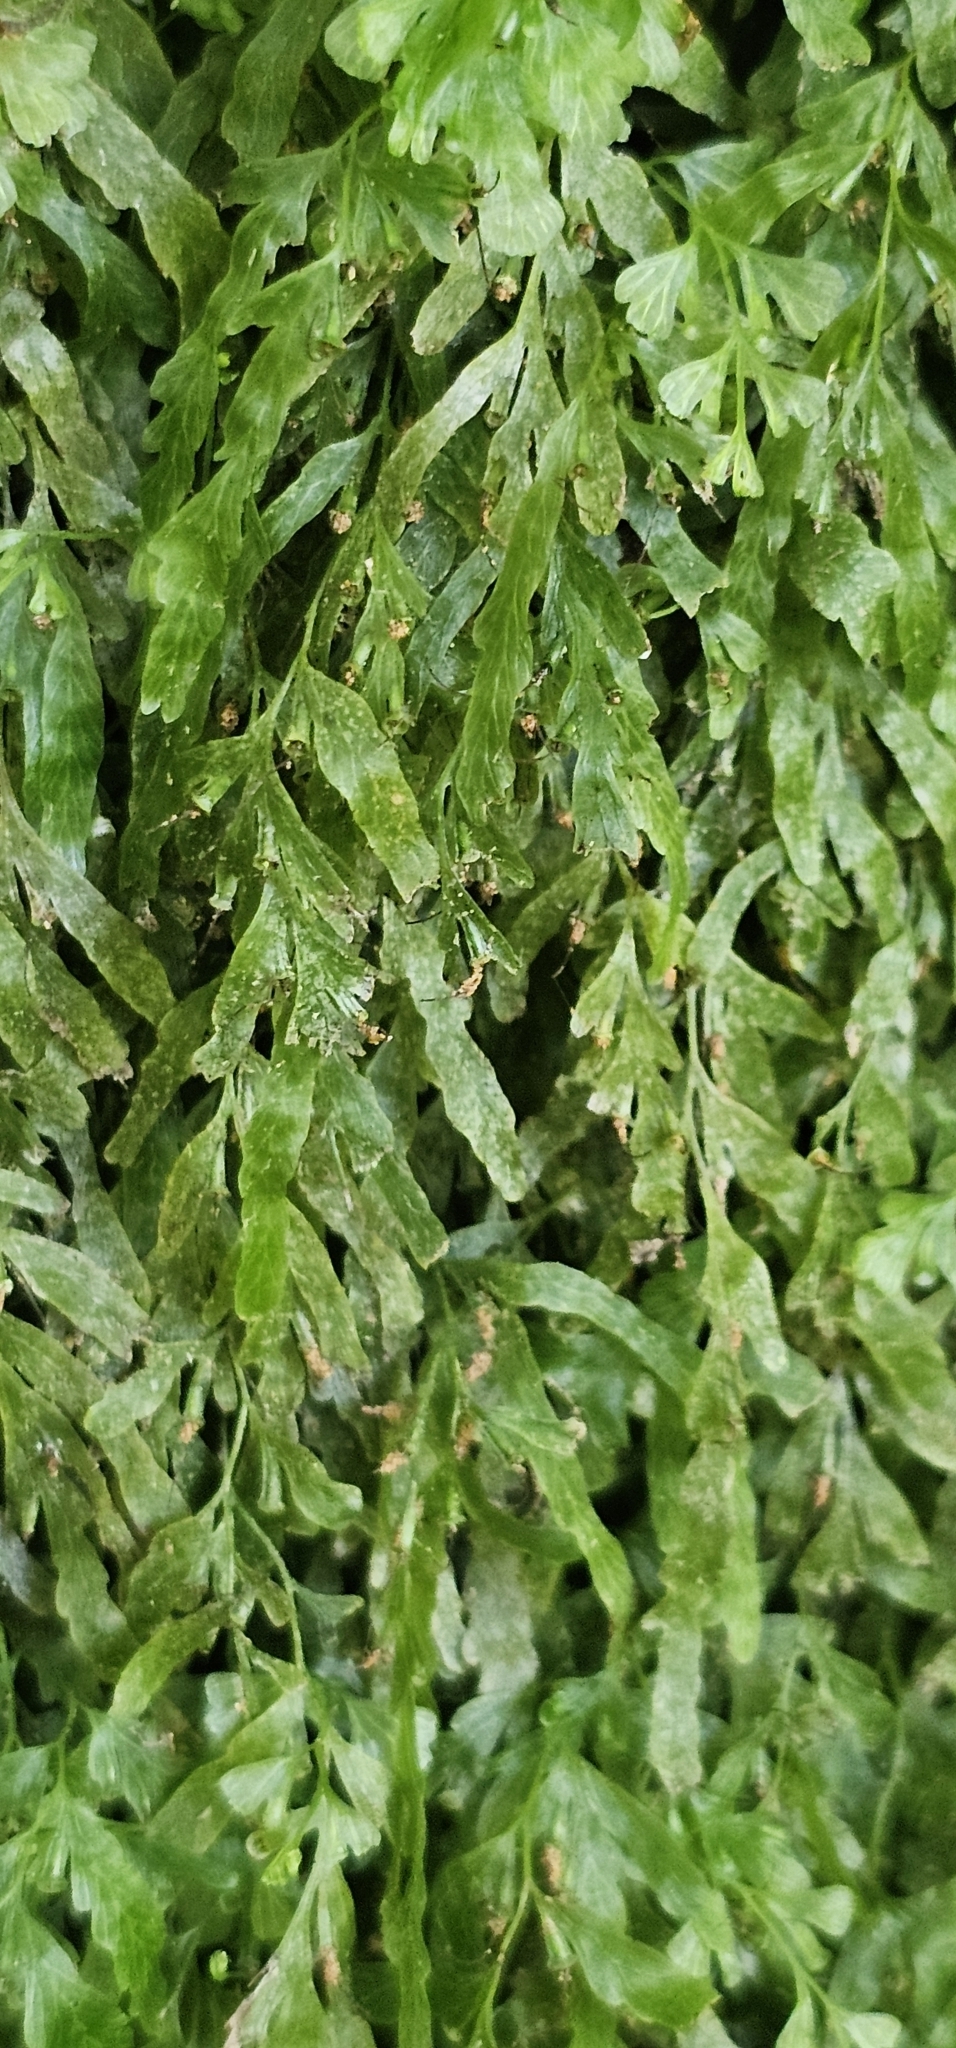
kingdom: Plantae
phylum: Tracheophyta
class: Polypodiopsida
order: Hymenophyllales
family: Hymenophyllaceae
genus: Polyphlebium
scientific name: Polyphlebium venosum
